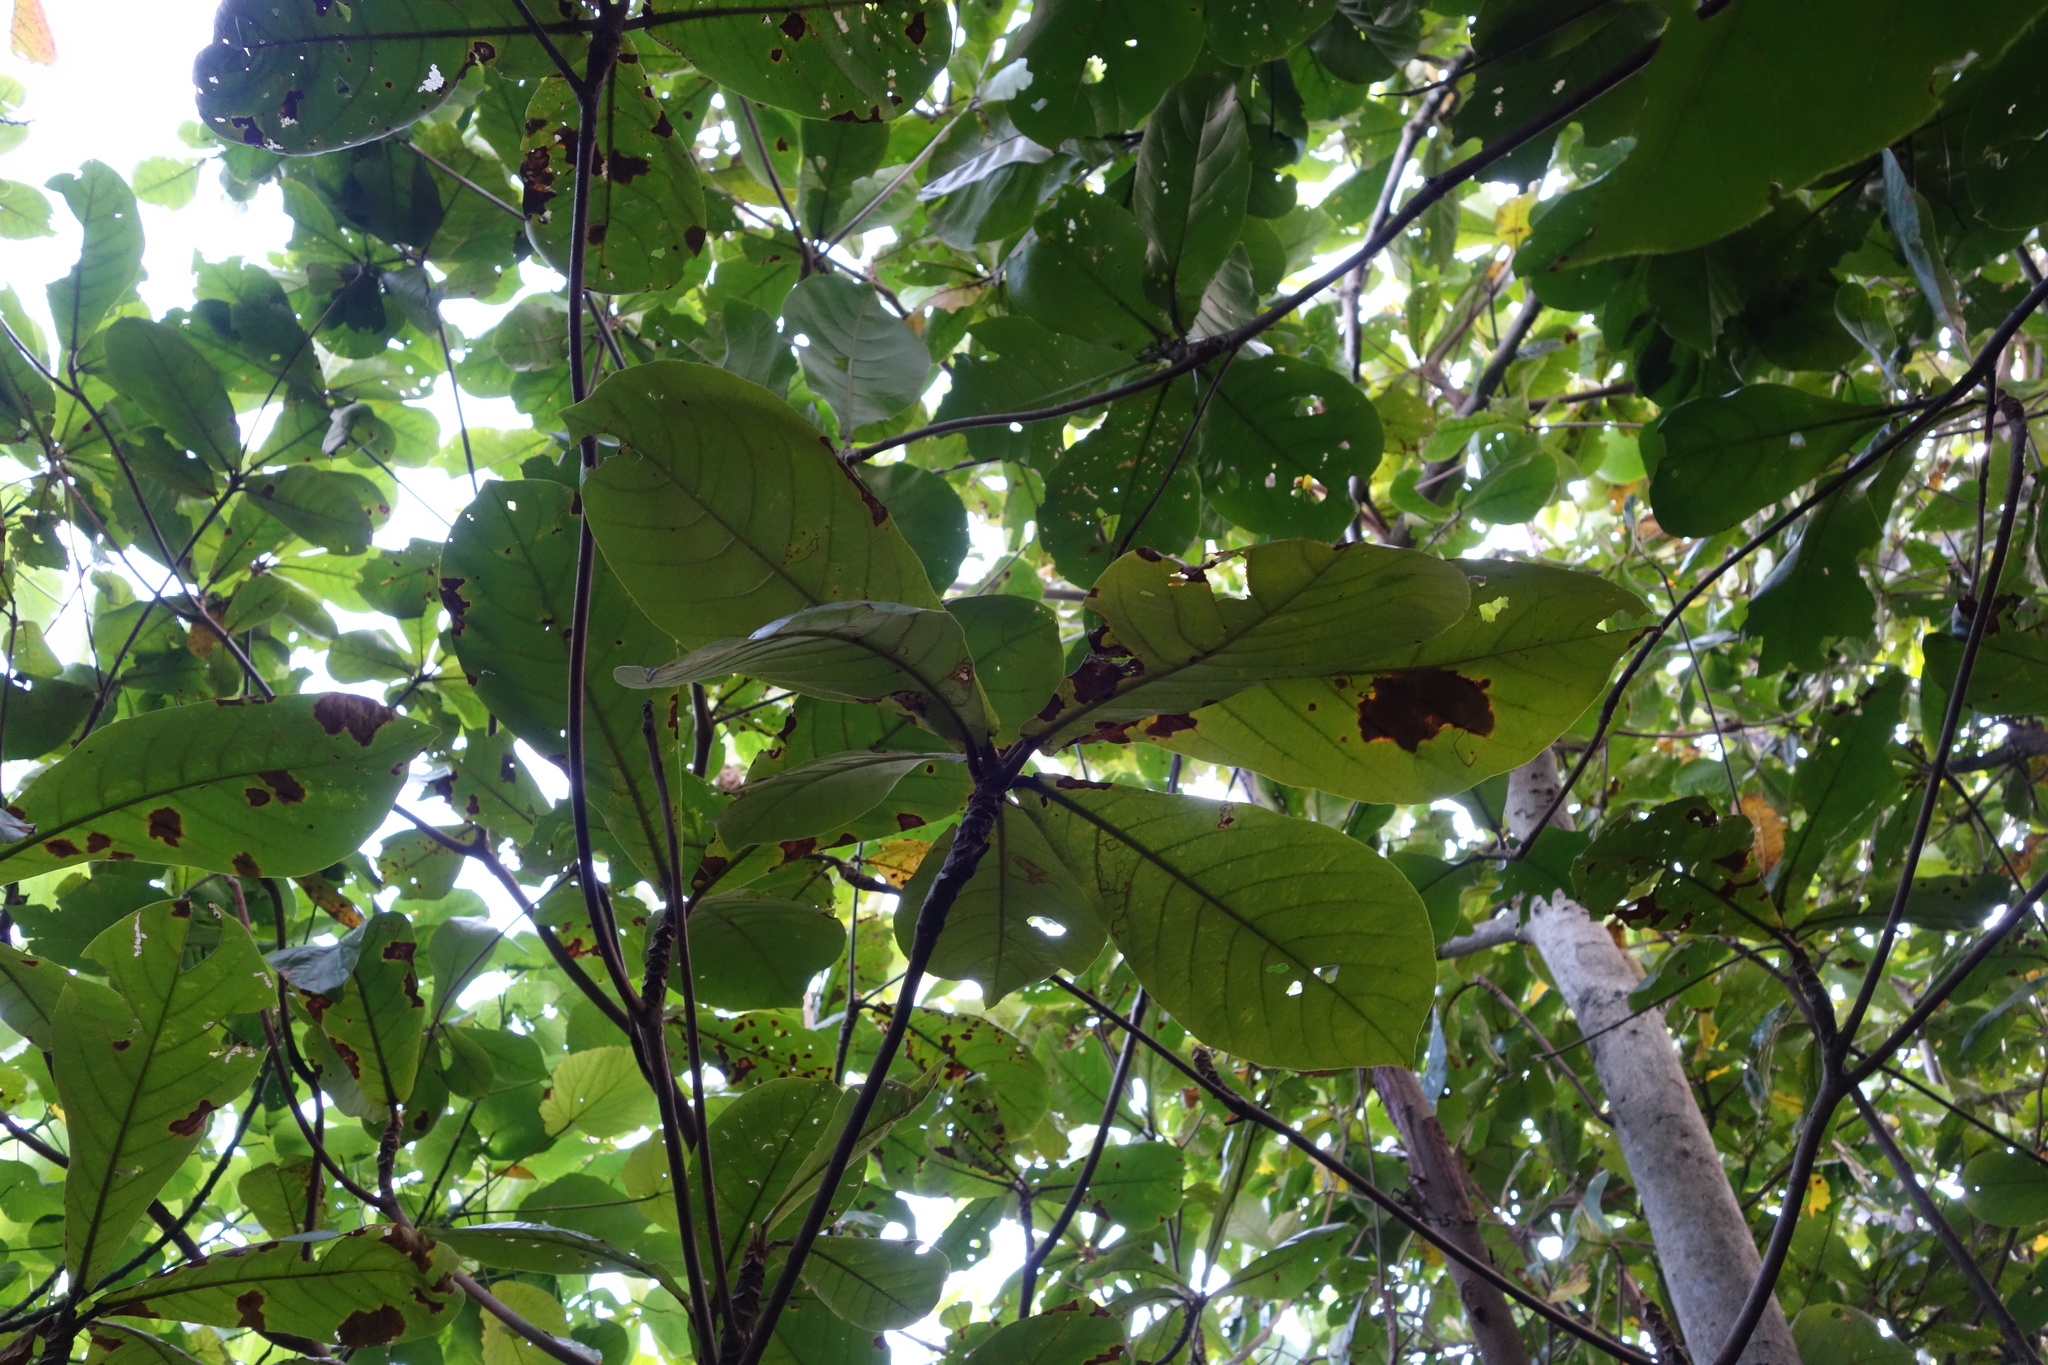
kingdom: Plantae
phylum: Tracheophyta
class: Magnoliopsida
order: Myrtales
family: Combretaceae
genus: Terminalia
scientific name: Terminalia catappa
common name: Tropical almond
